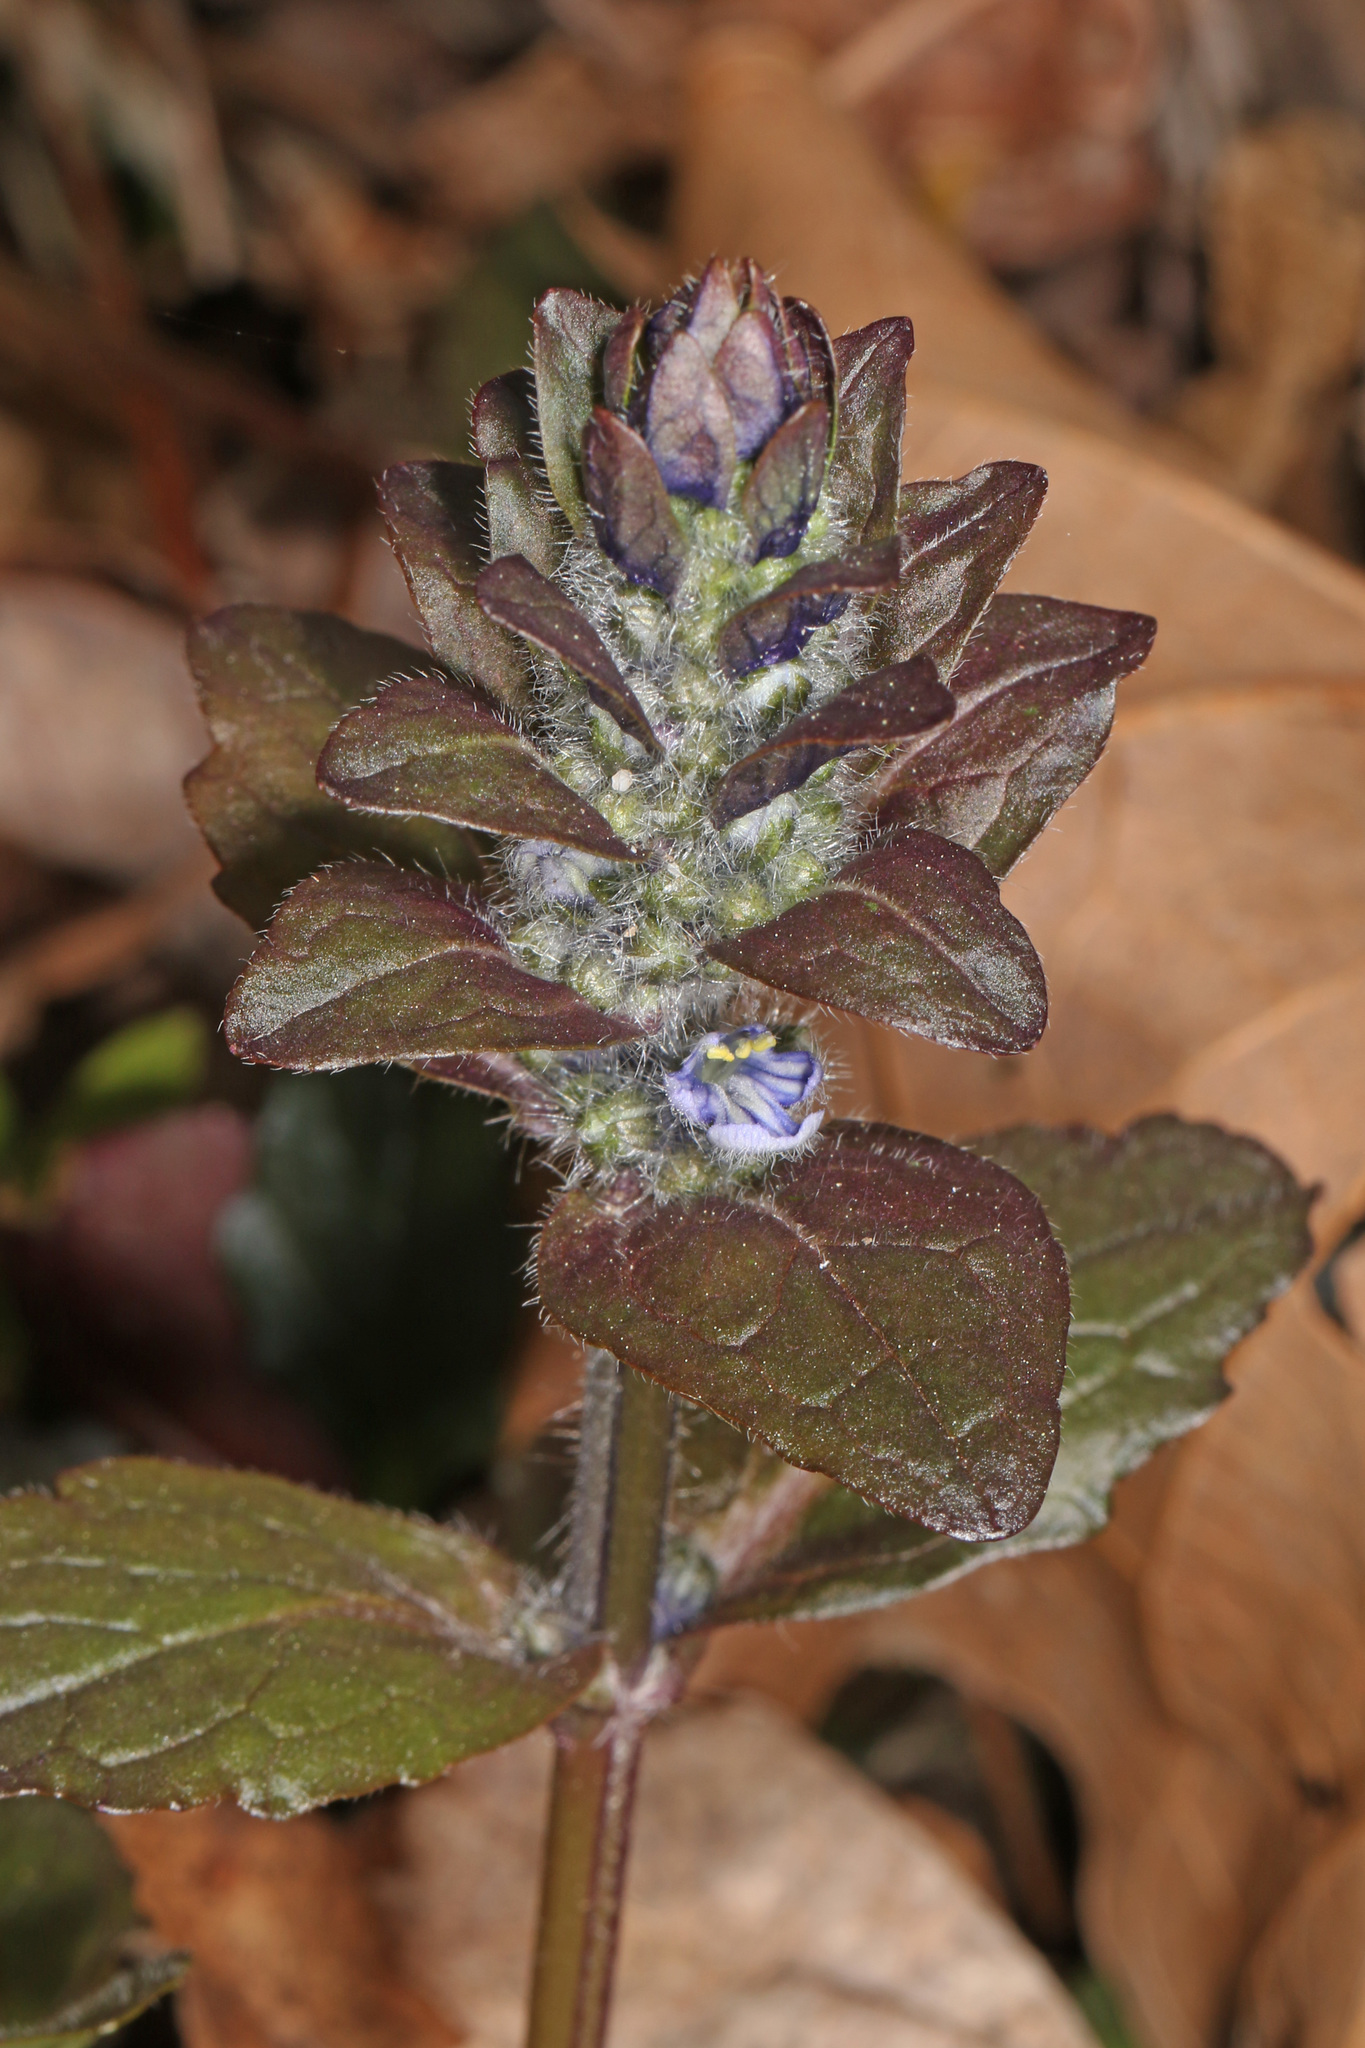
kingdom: Plantae
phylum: Tracheophyta
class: Magnoliopsida
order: Lamiales
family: Lamiaceae
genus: Ajuga
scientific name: Ajuga reptans
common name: Bugle
